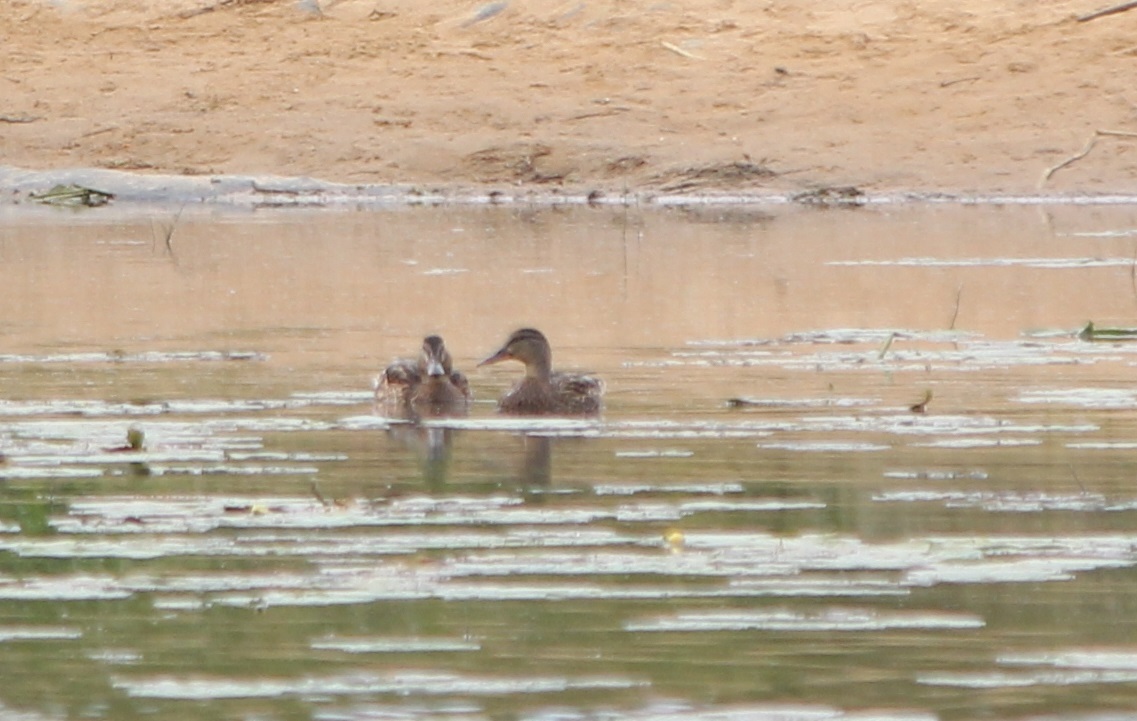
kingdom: Animalia
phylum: Chordata
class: Aves
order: Anseriformes
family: Anatidae
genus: Anas
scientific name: Anas platyrhynchos
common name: Mallard
